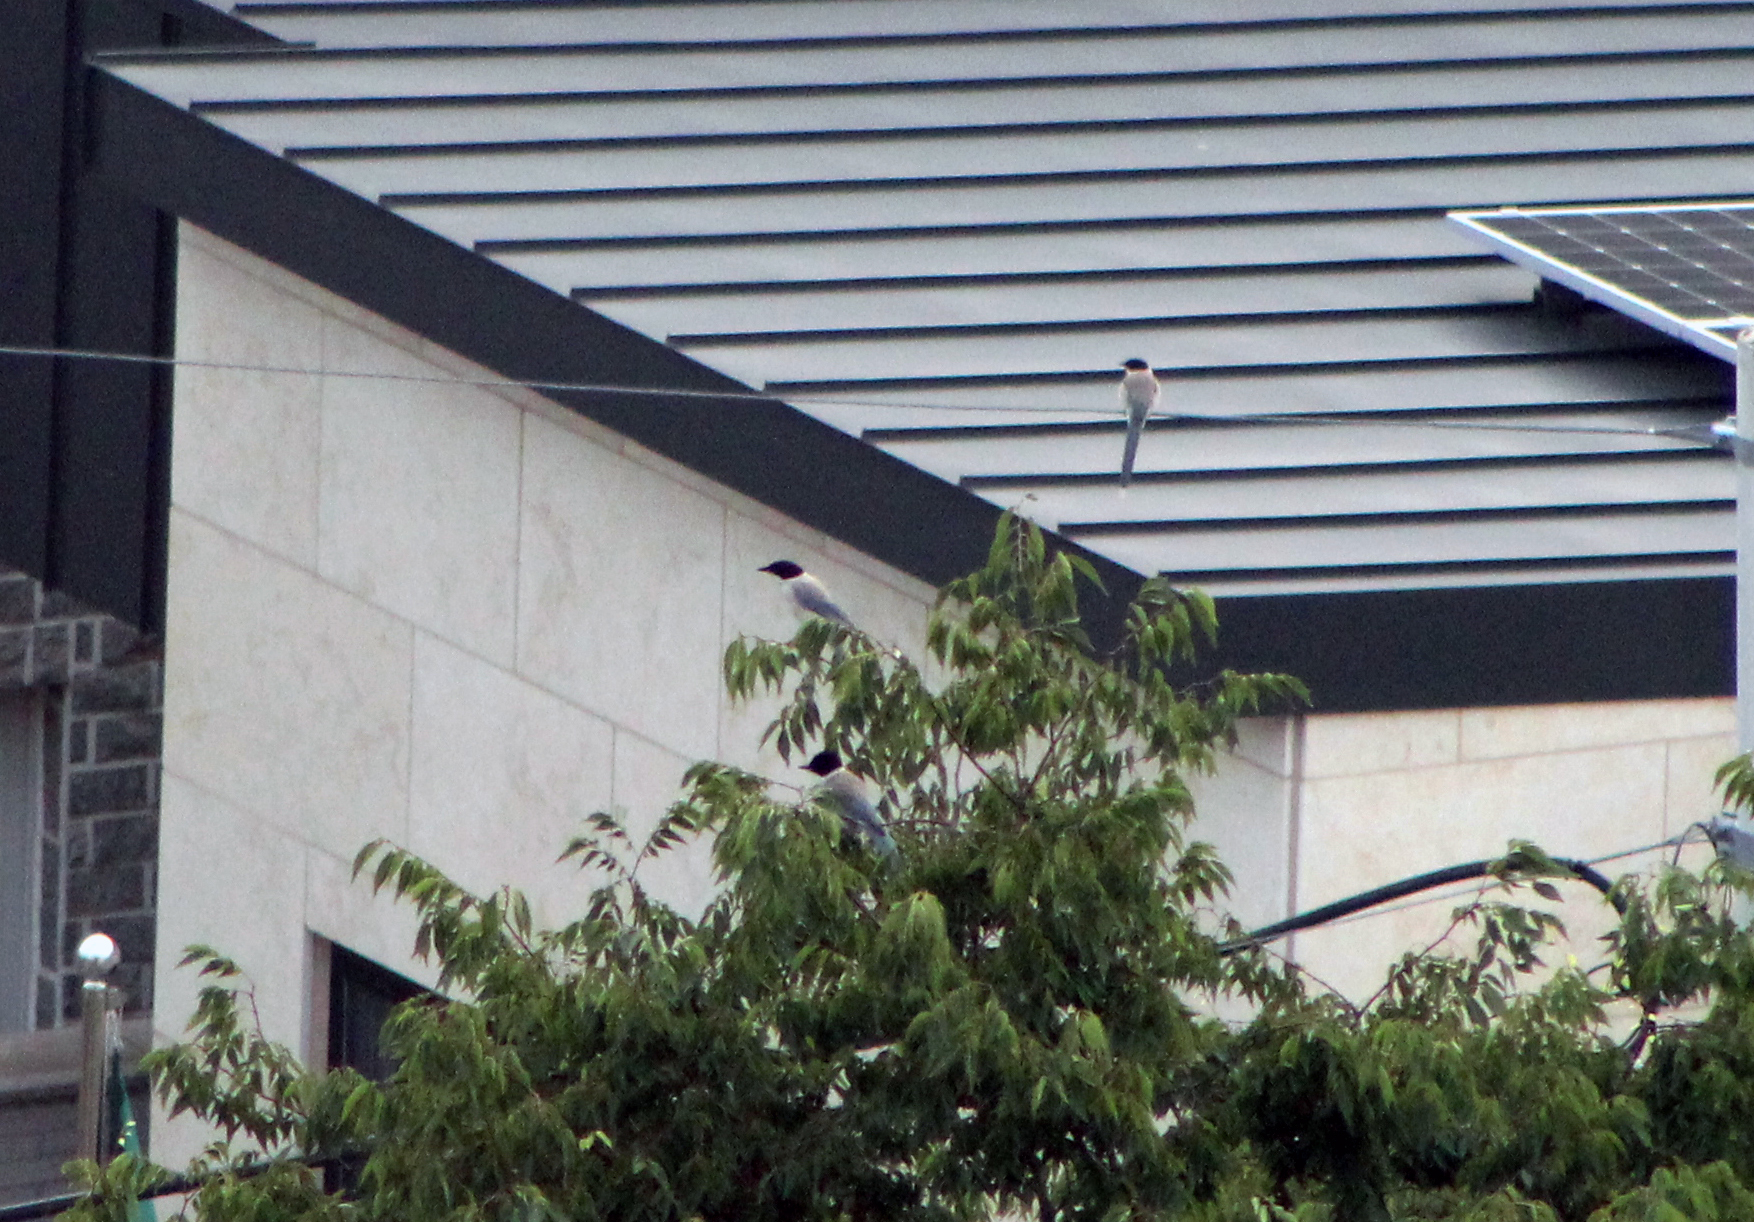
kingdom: Animalia
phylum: Chordata
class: Aves
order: Passeriformes
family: Corvidae
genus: Cyanopica
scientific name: Cyanopica cyanus
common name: Azure-winged magpie
